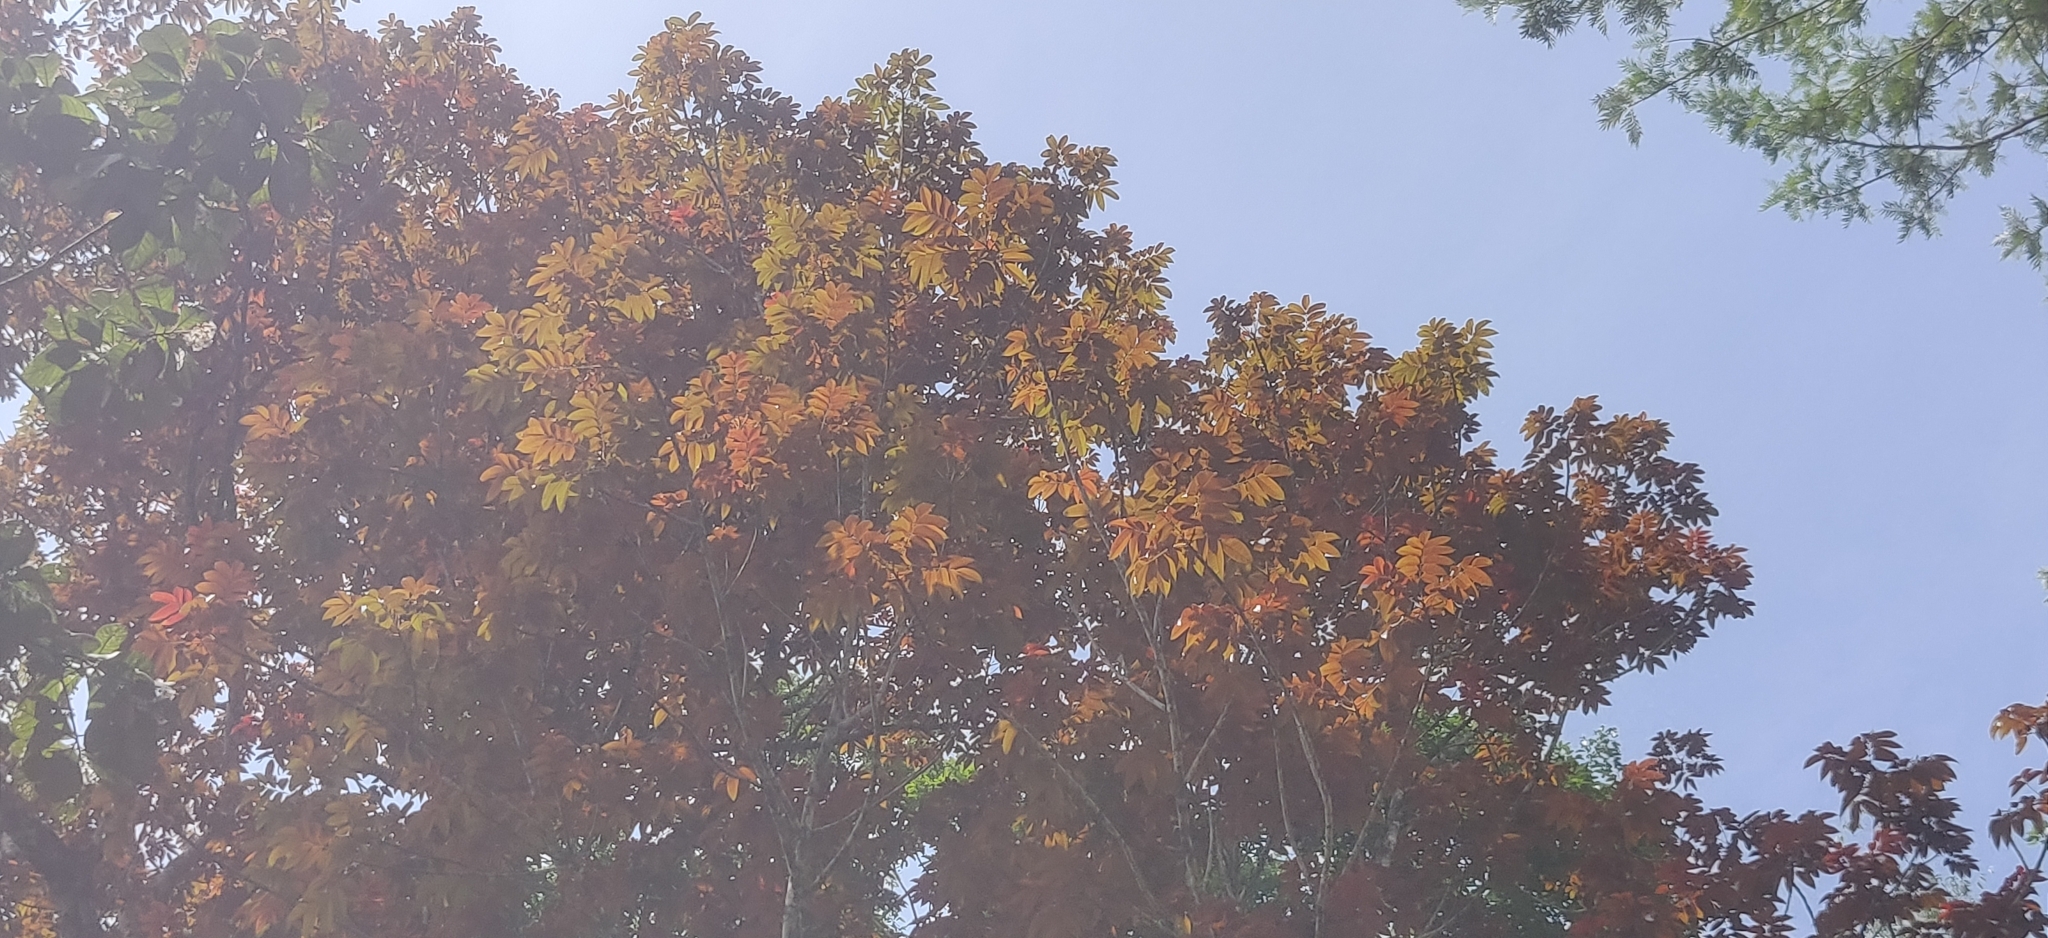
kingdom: Plantae
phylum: Tracheophyta
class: Magnoliopsida
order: Sapindales
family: Burseraceae
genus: Canarium
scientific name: Canarium strictum
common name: Indian white-mahogany
